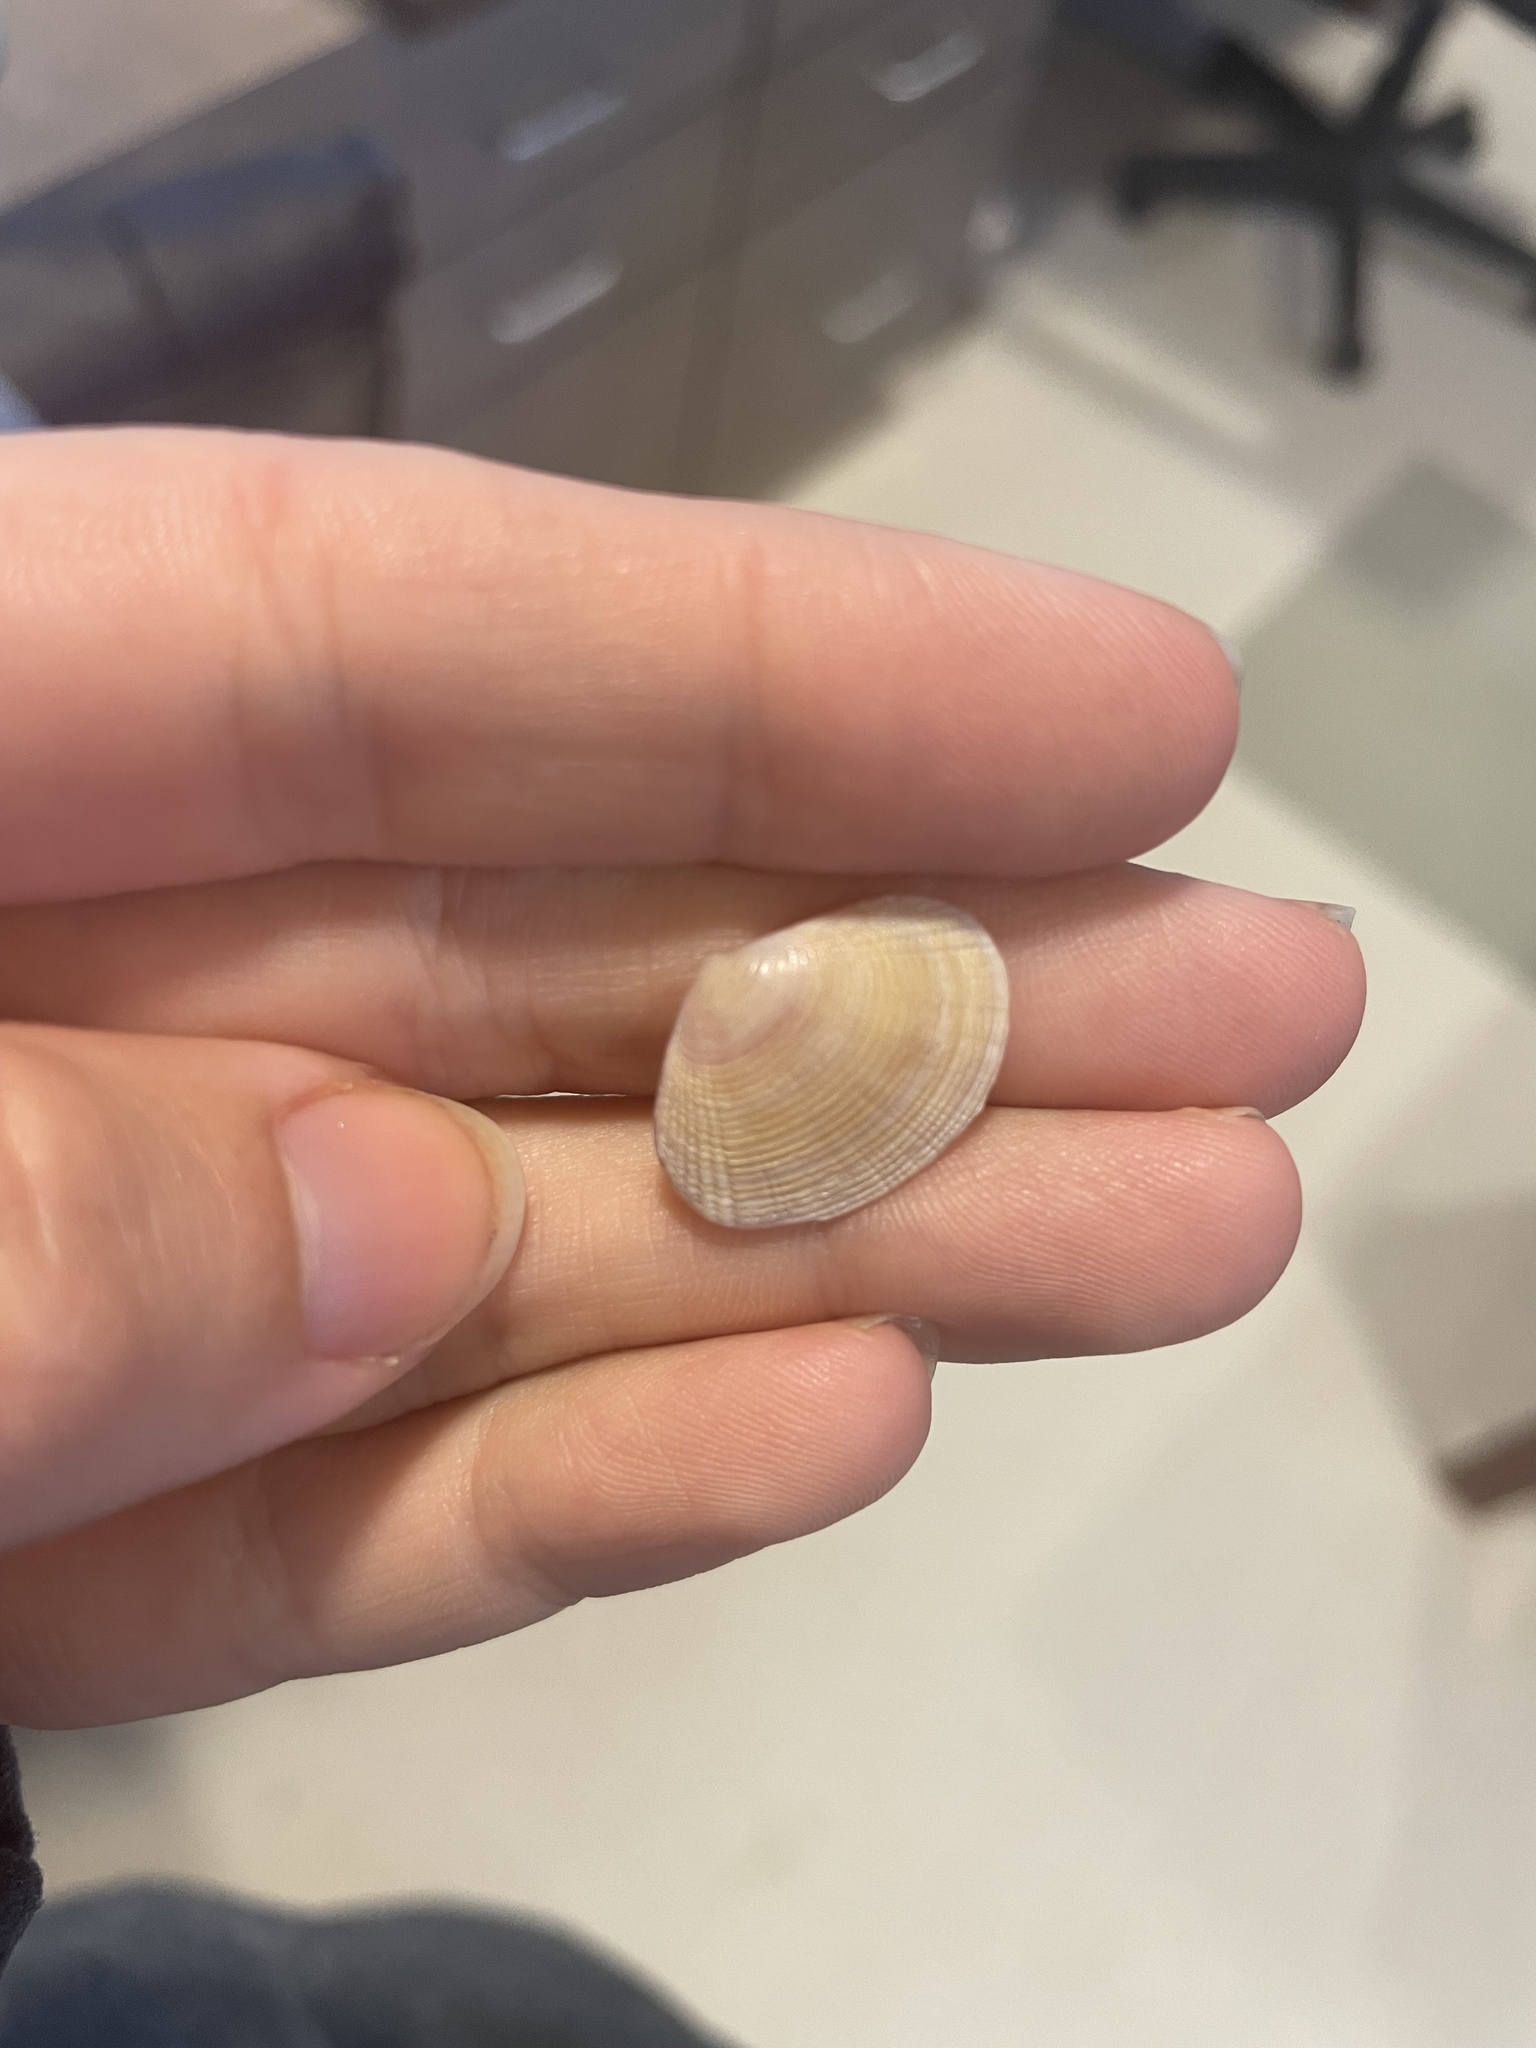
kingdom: Animalia
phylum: Mollusca
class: Bivalvia
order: Cardiida
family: Semelidae
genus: Semele
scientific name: Semele bellastriata
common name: Cancellate semele
